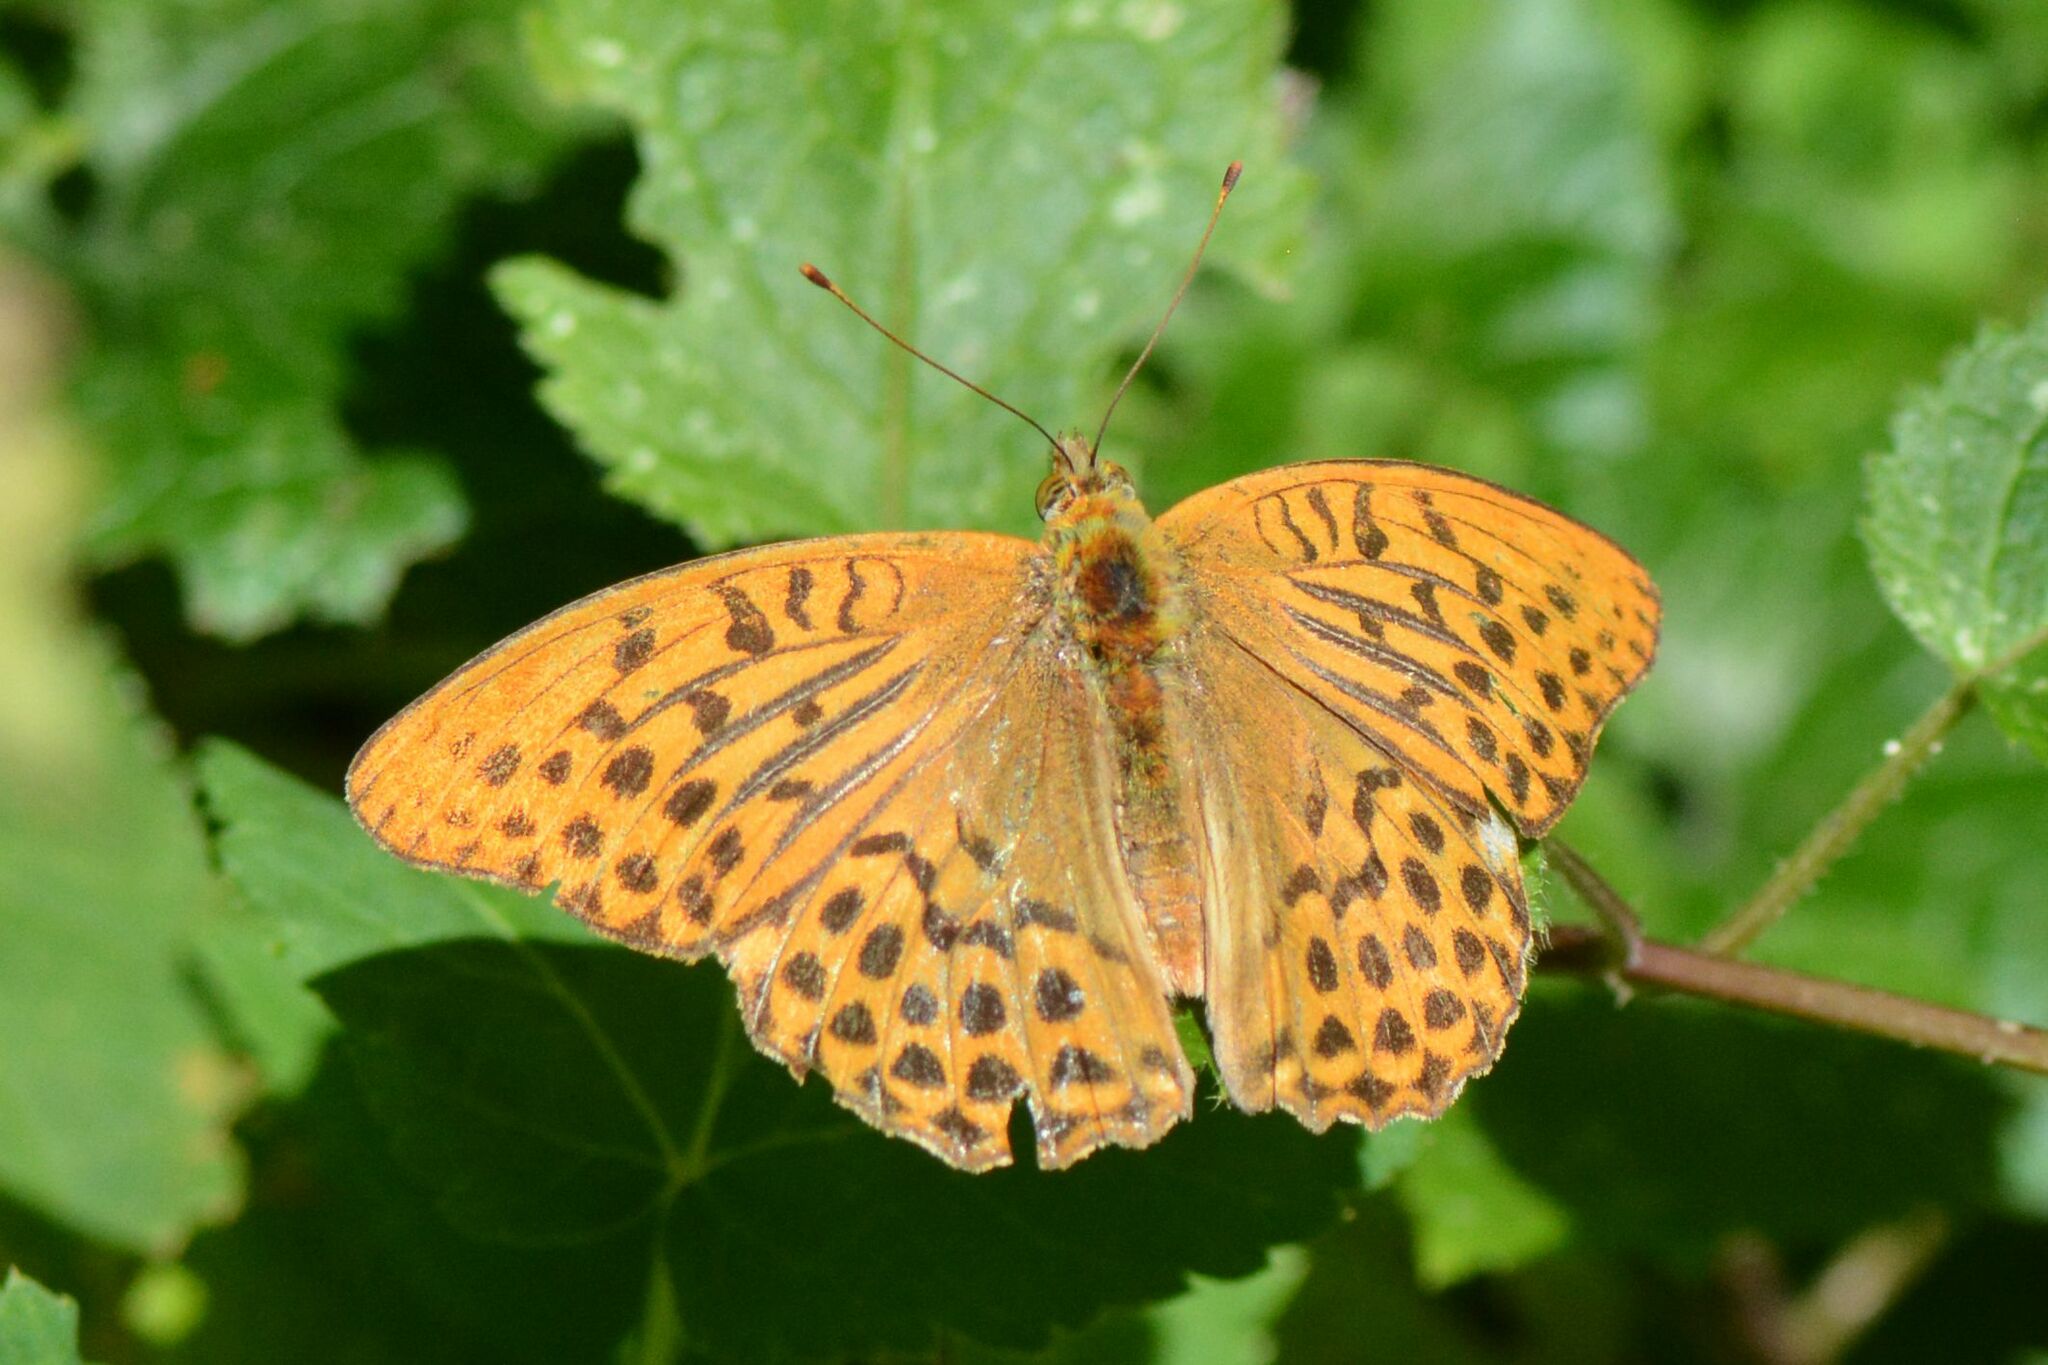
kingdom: Animalia
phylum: Arthropoda
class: Insecta
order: Lepidoptera
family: Nymphalidae
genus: Argynnis
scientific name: Argynnis paphia
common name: Silver-washed fritillary
